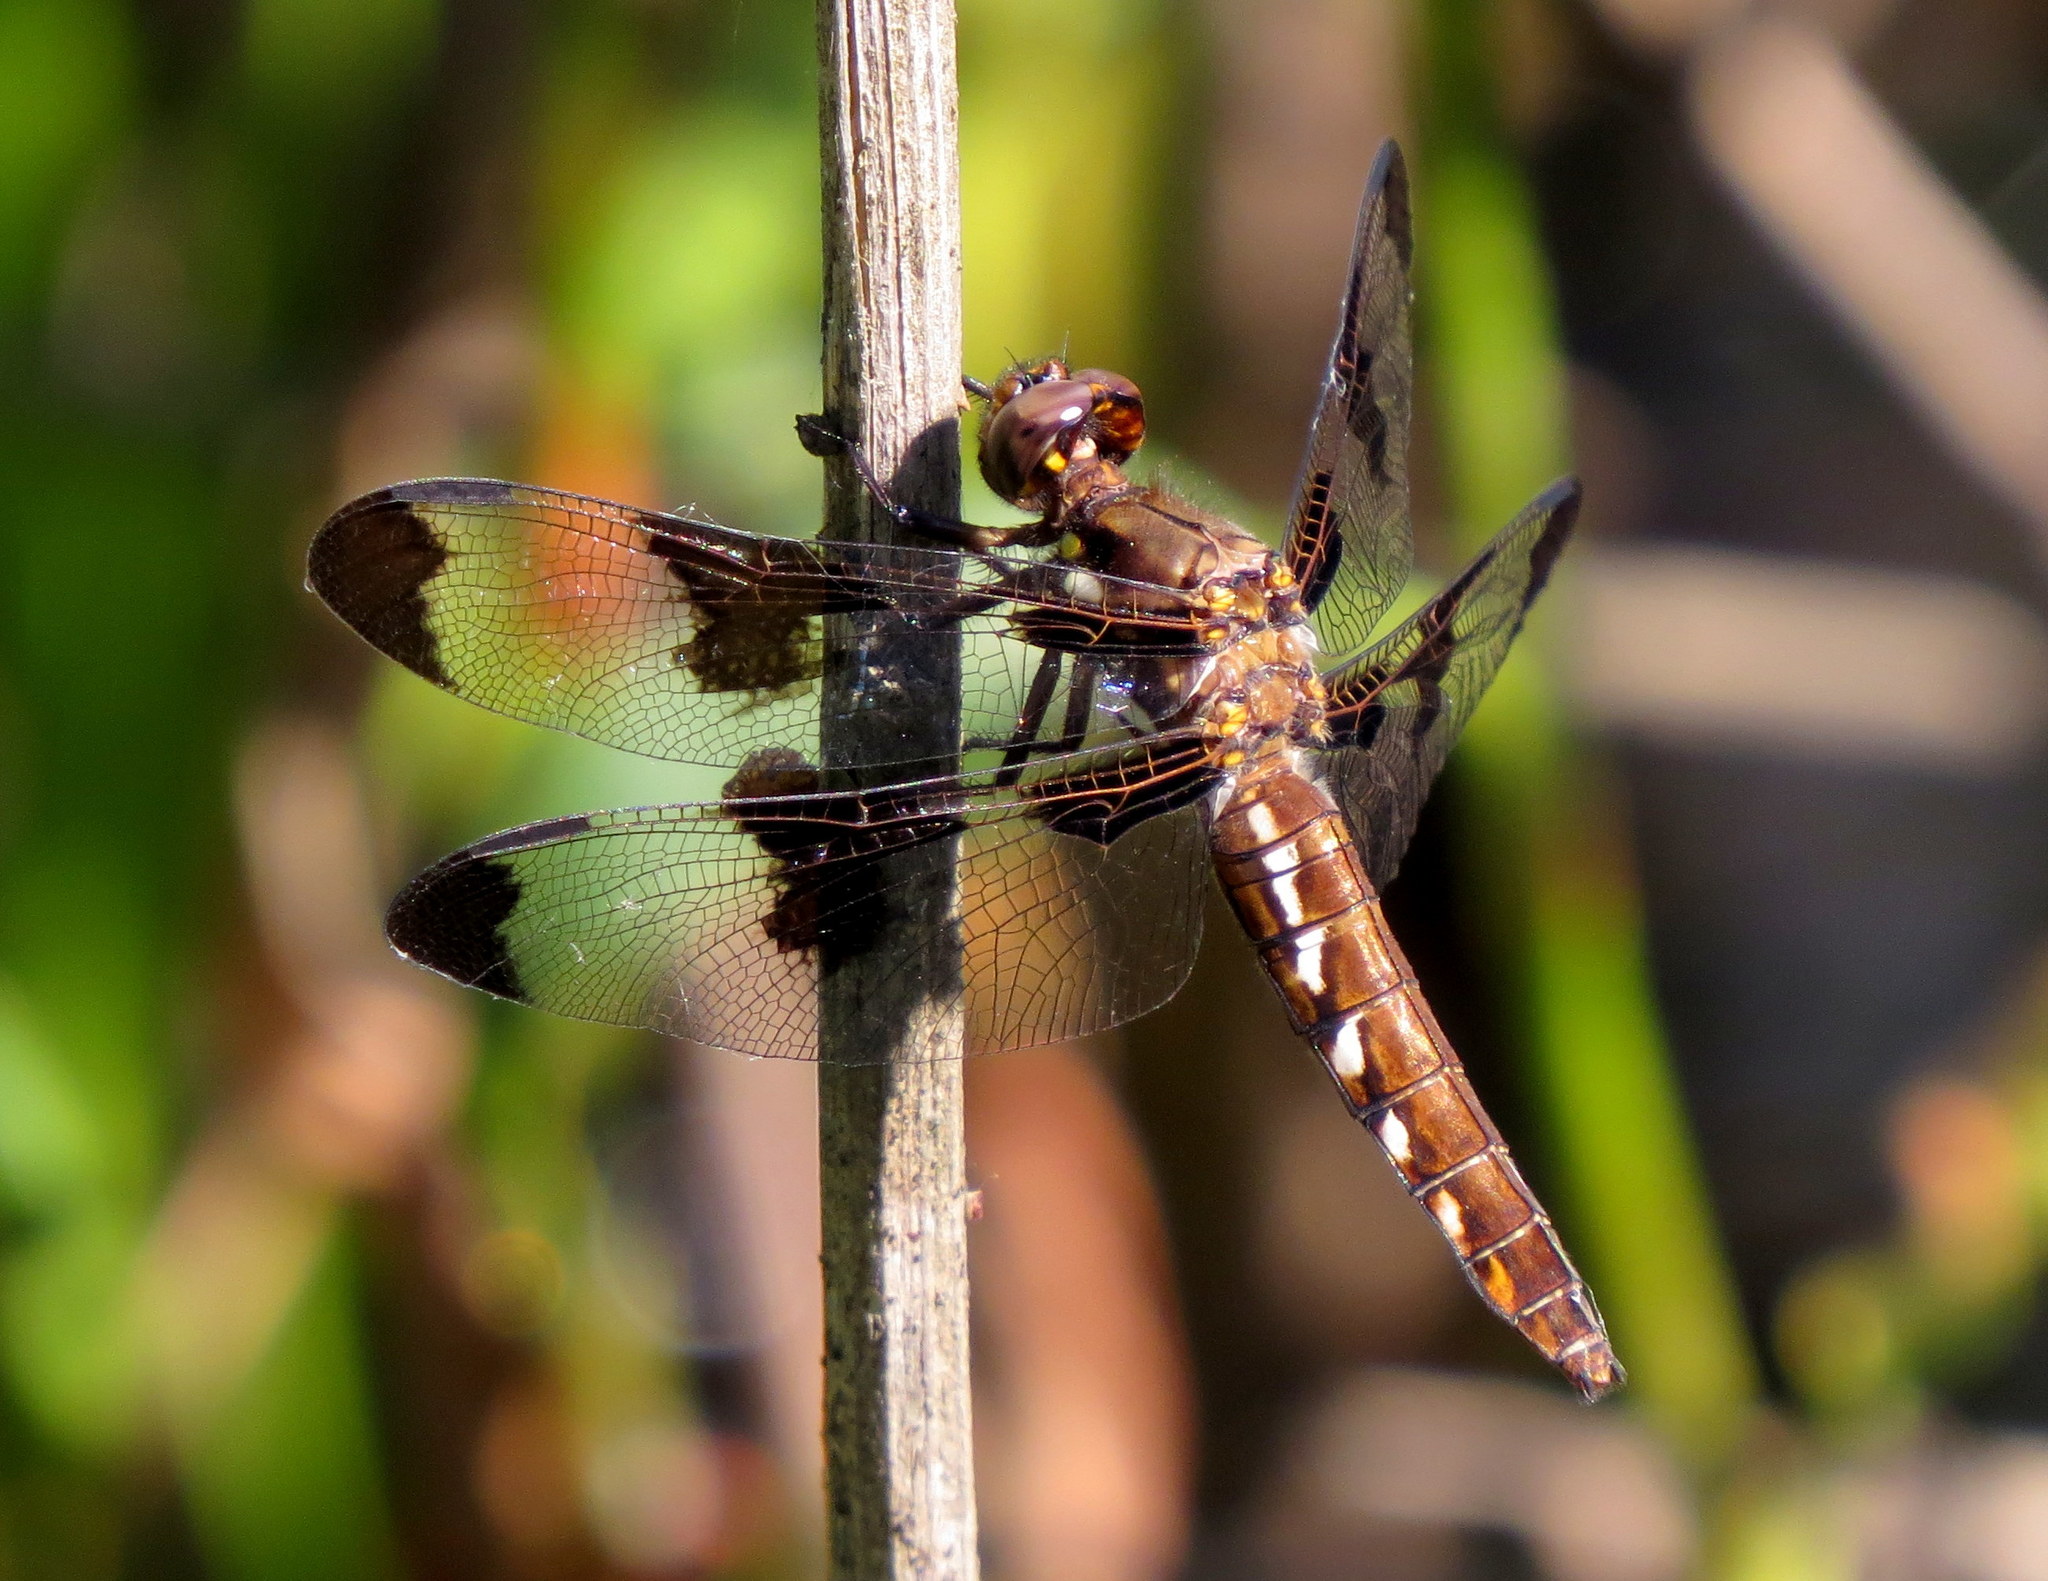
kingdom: Animalia
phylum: Arthropoda
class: Insecta
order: Odonata
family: Libellulidae
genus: Plathemis
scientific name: Plathemis lydia
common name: Common whitetail
